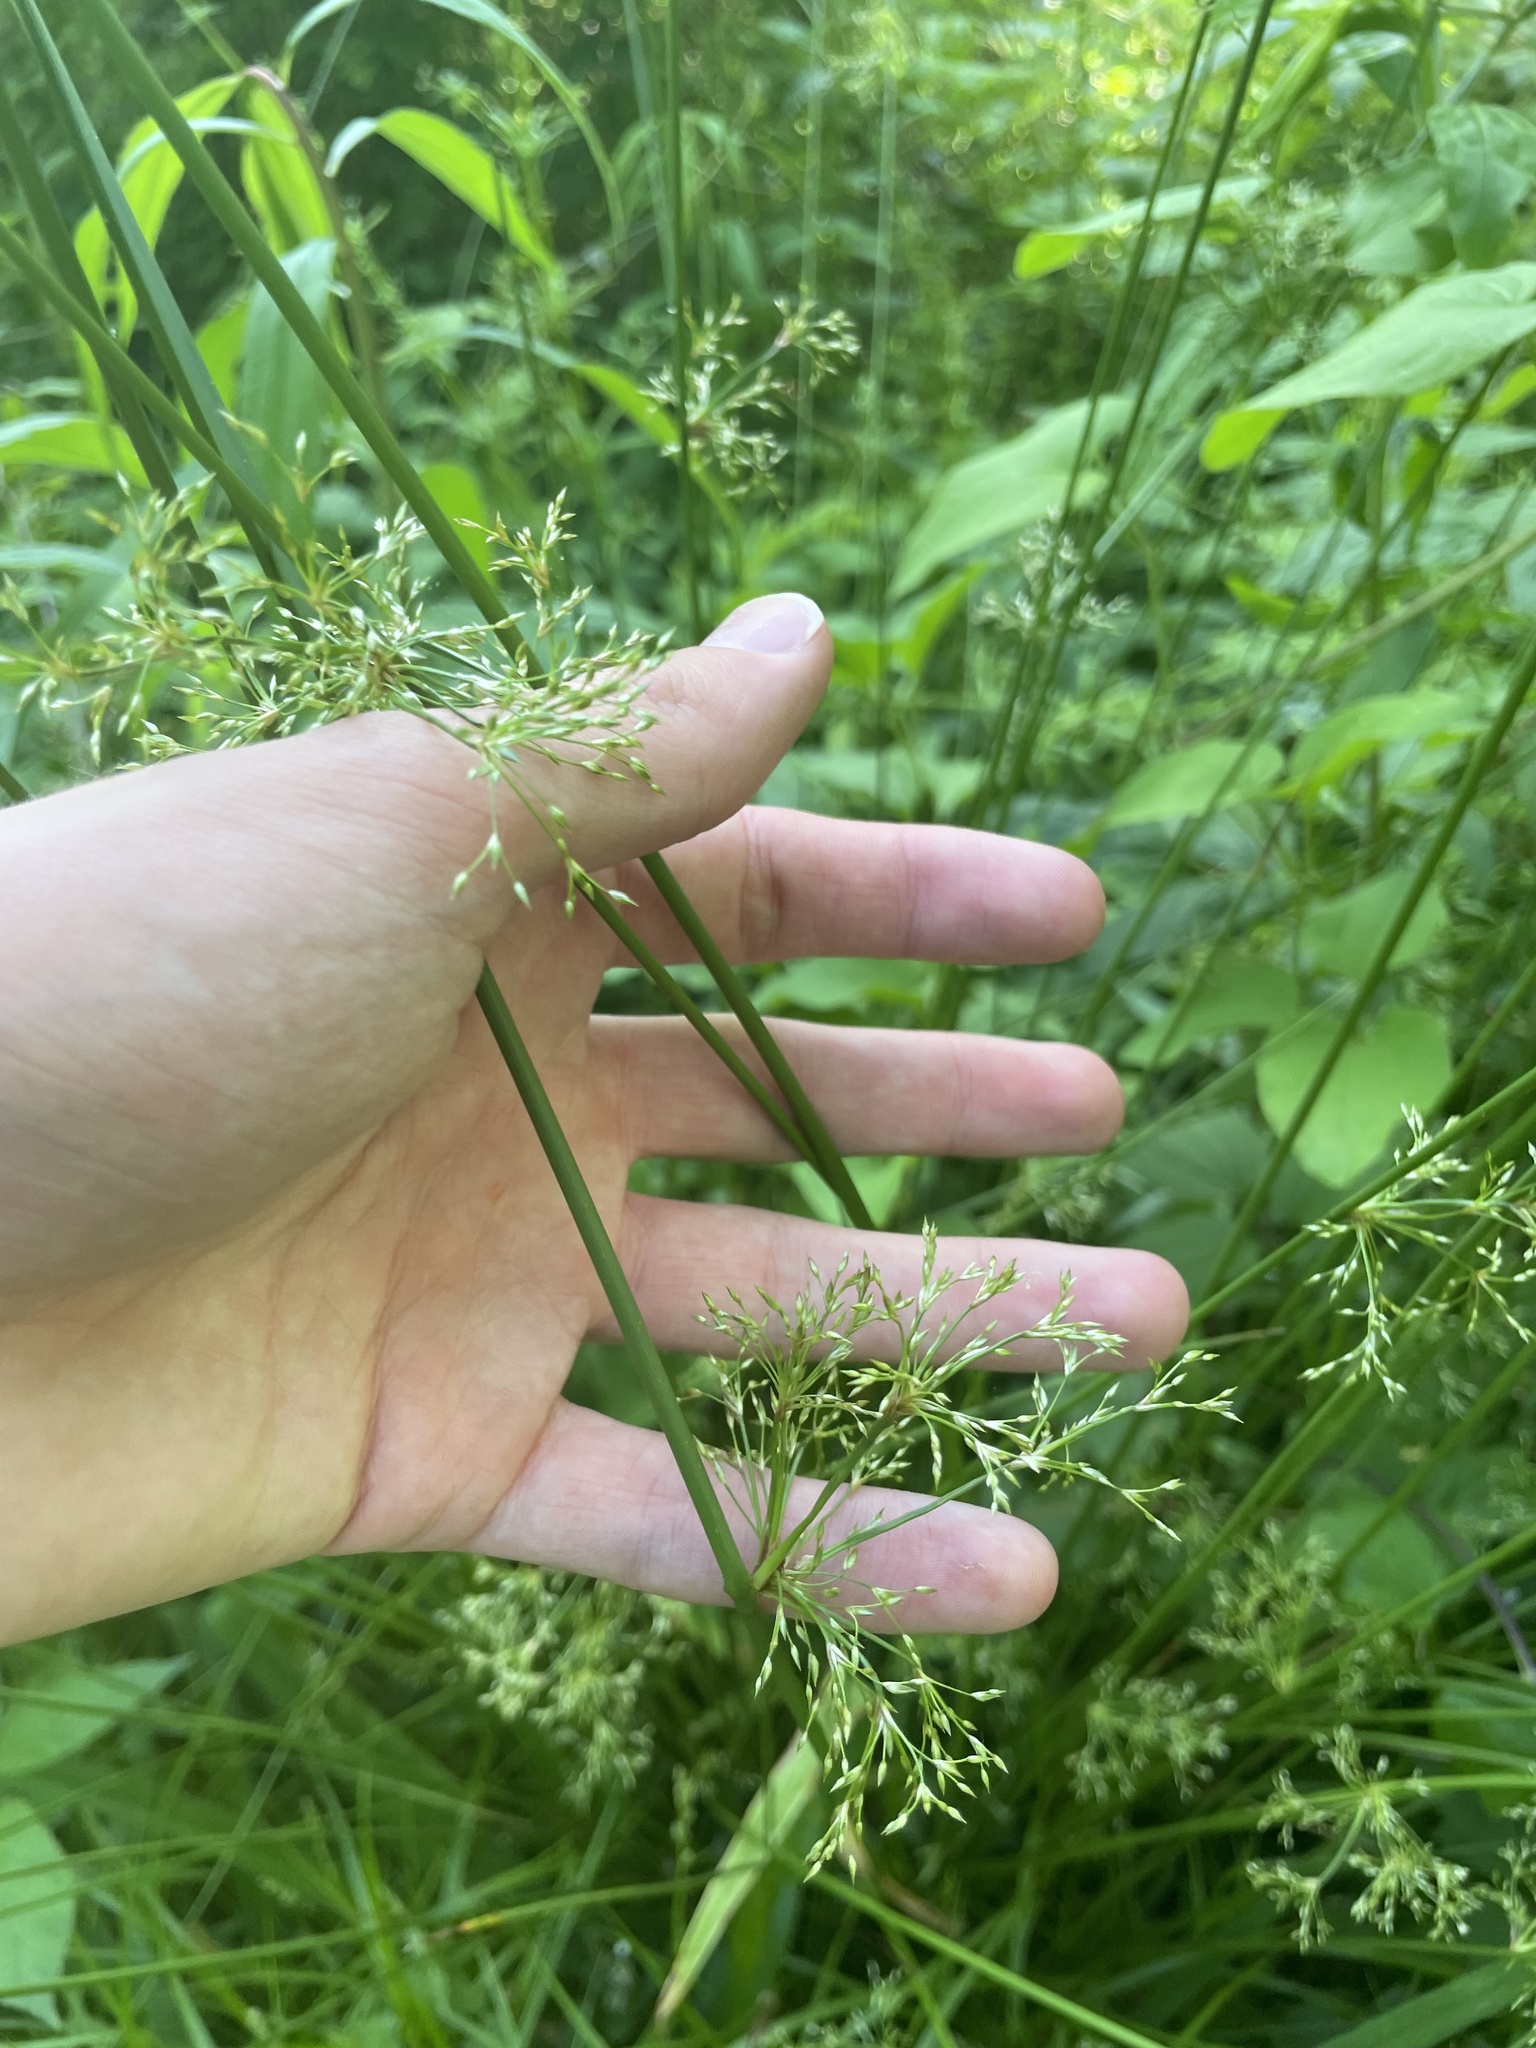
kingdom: Plantae
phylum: Tracheophyta
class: Liliopsida
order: Poales
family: Juncaceae
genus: Juncus
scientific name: Juncus effusus
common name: Soft rush
